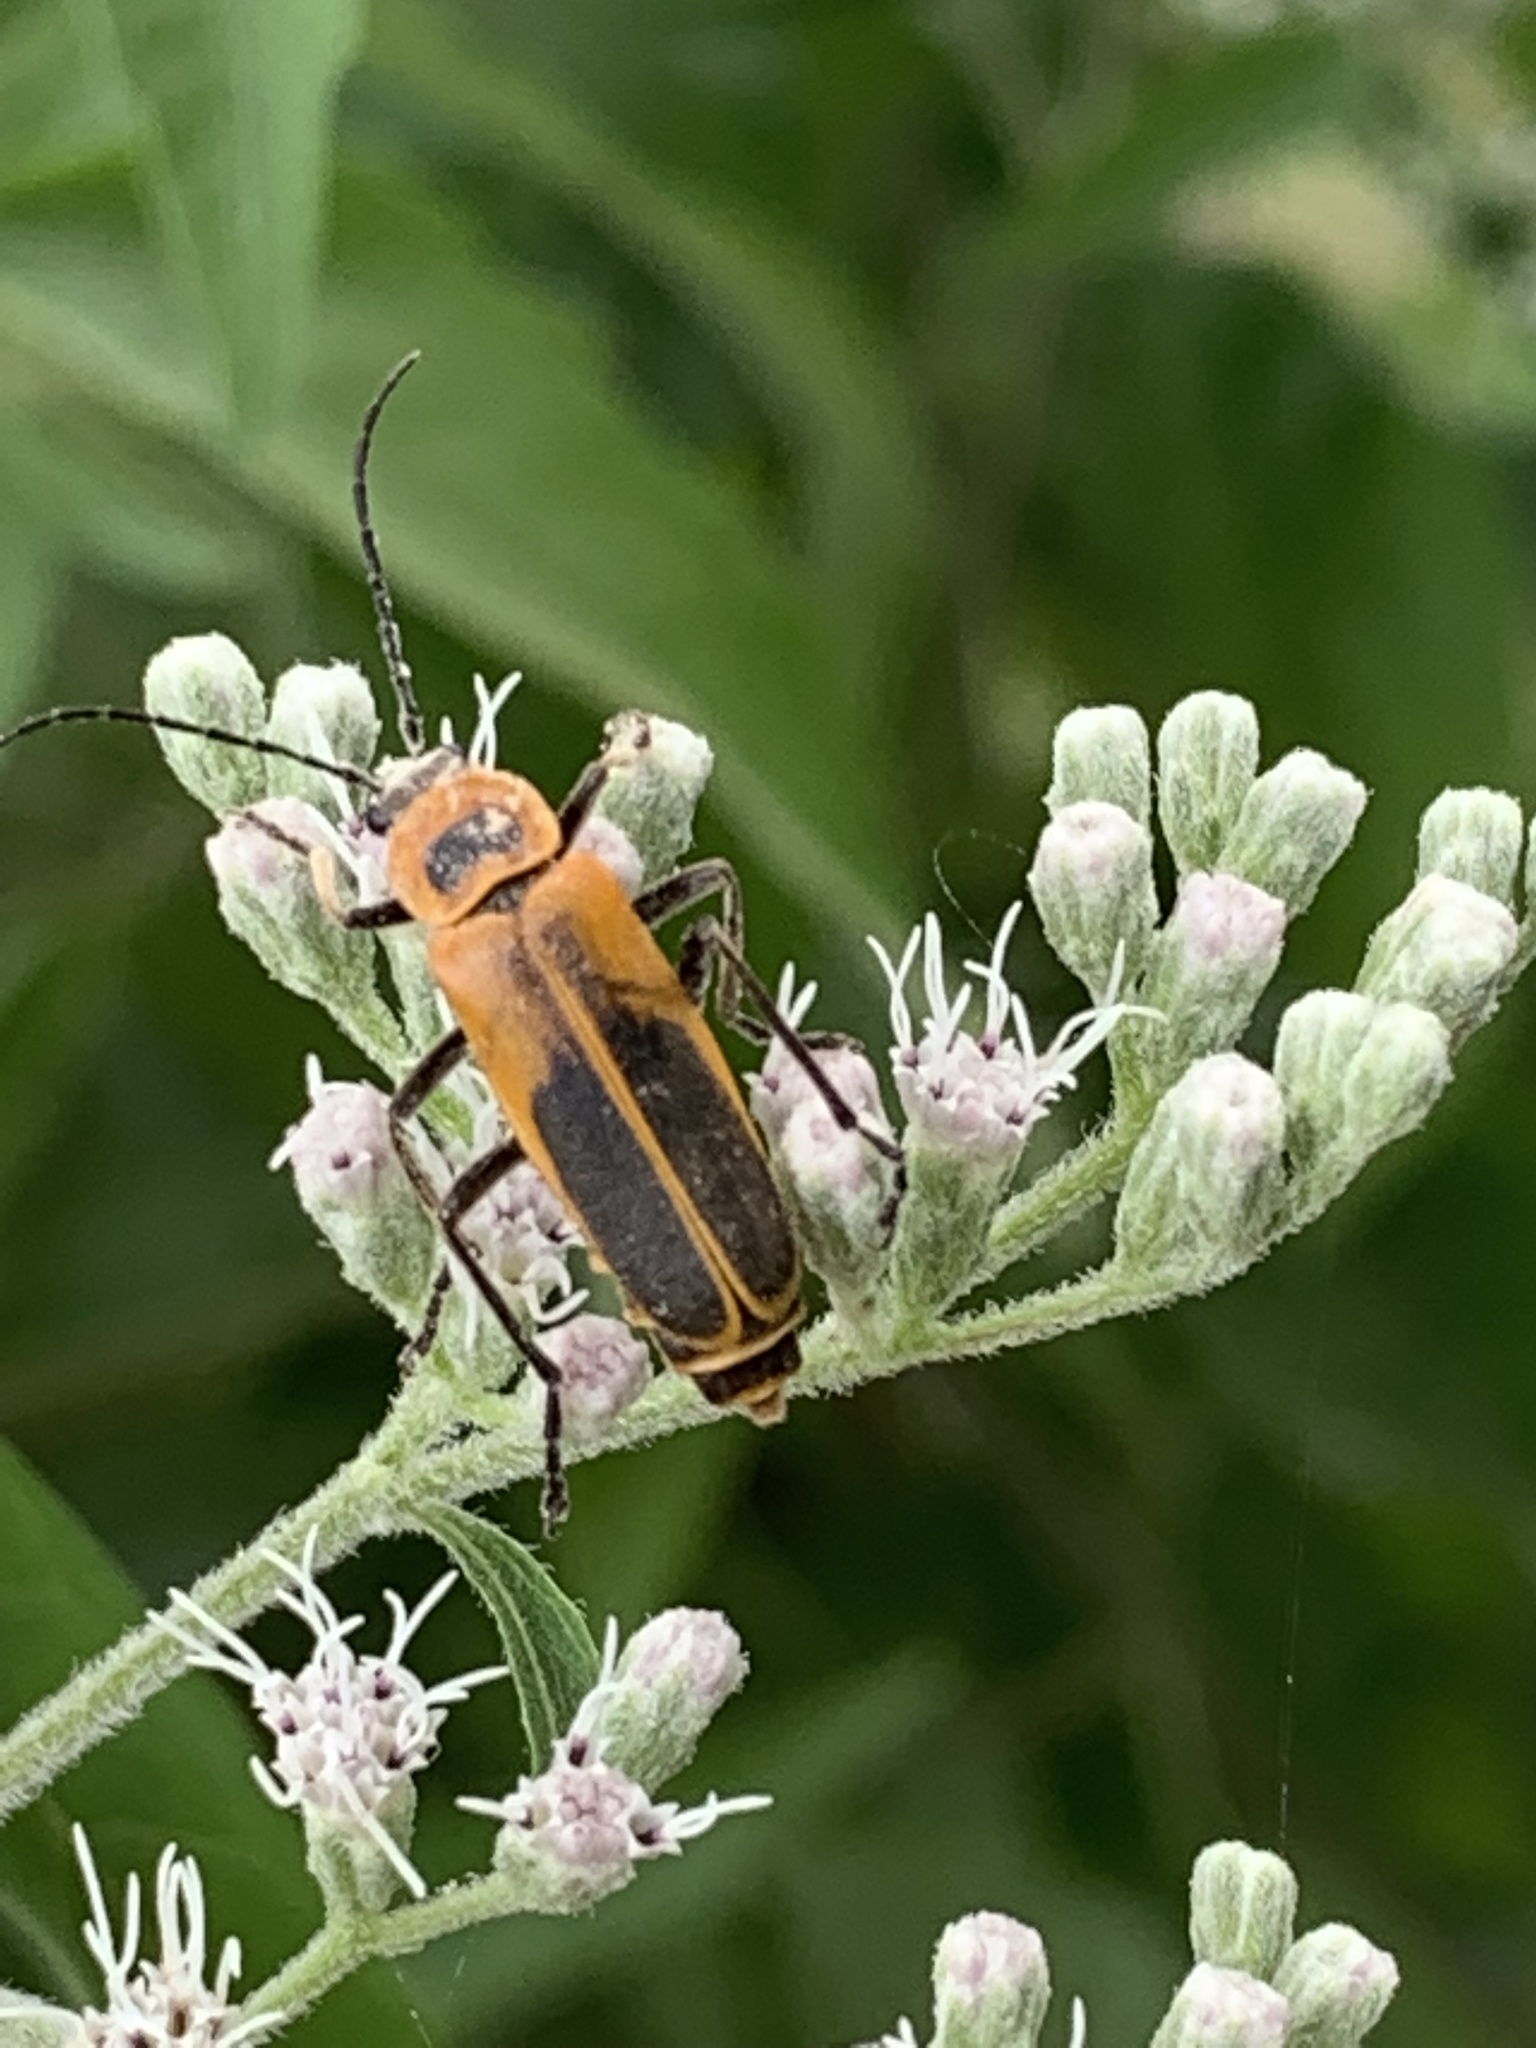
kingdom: Animalia
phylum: Arthropoda
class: Insecta
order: Coleoptera
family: Cantharidae
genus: Chauliognathus
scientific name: Chauliognathus pensylvanicus
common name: Goldenrod soldier beetle
